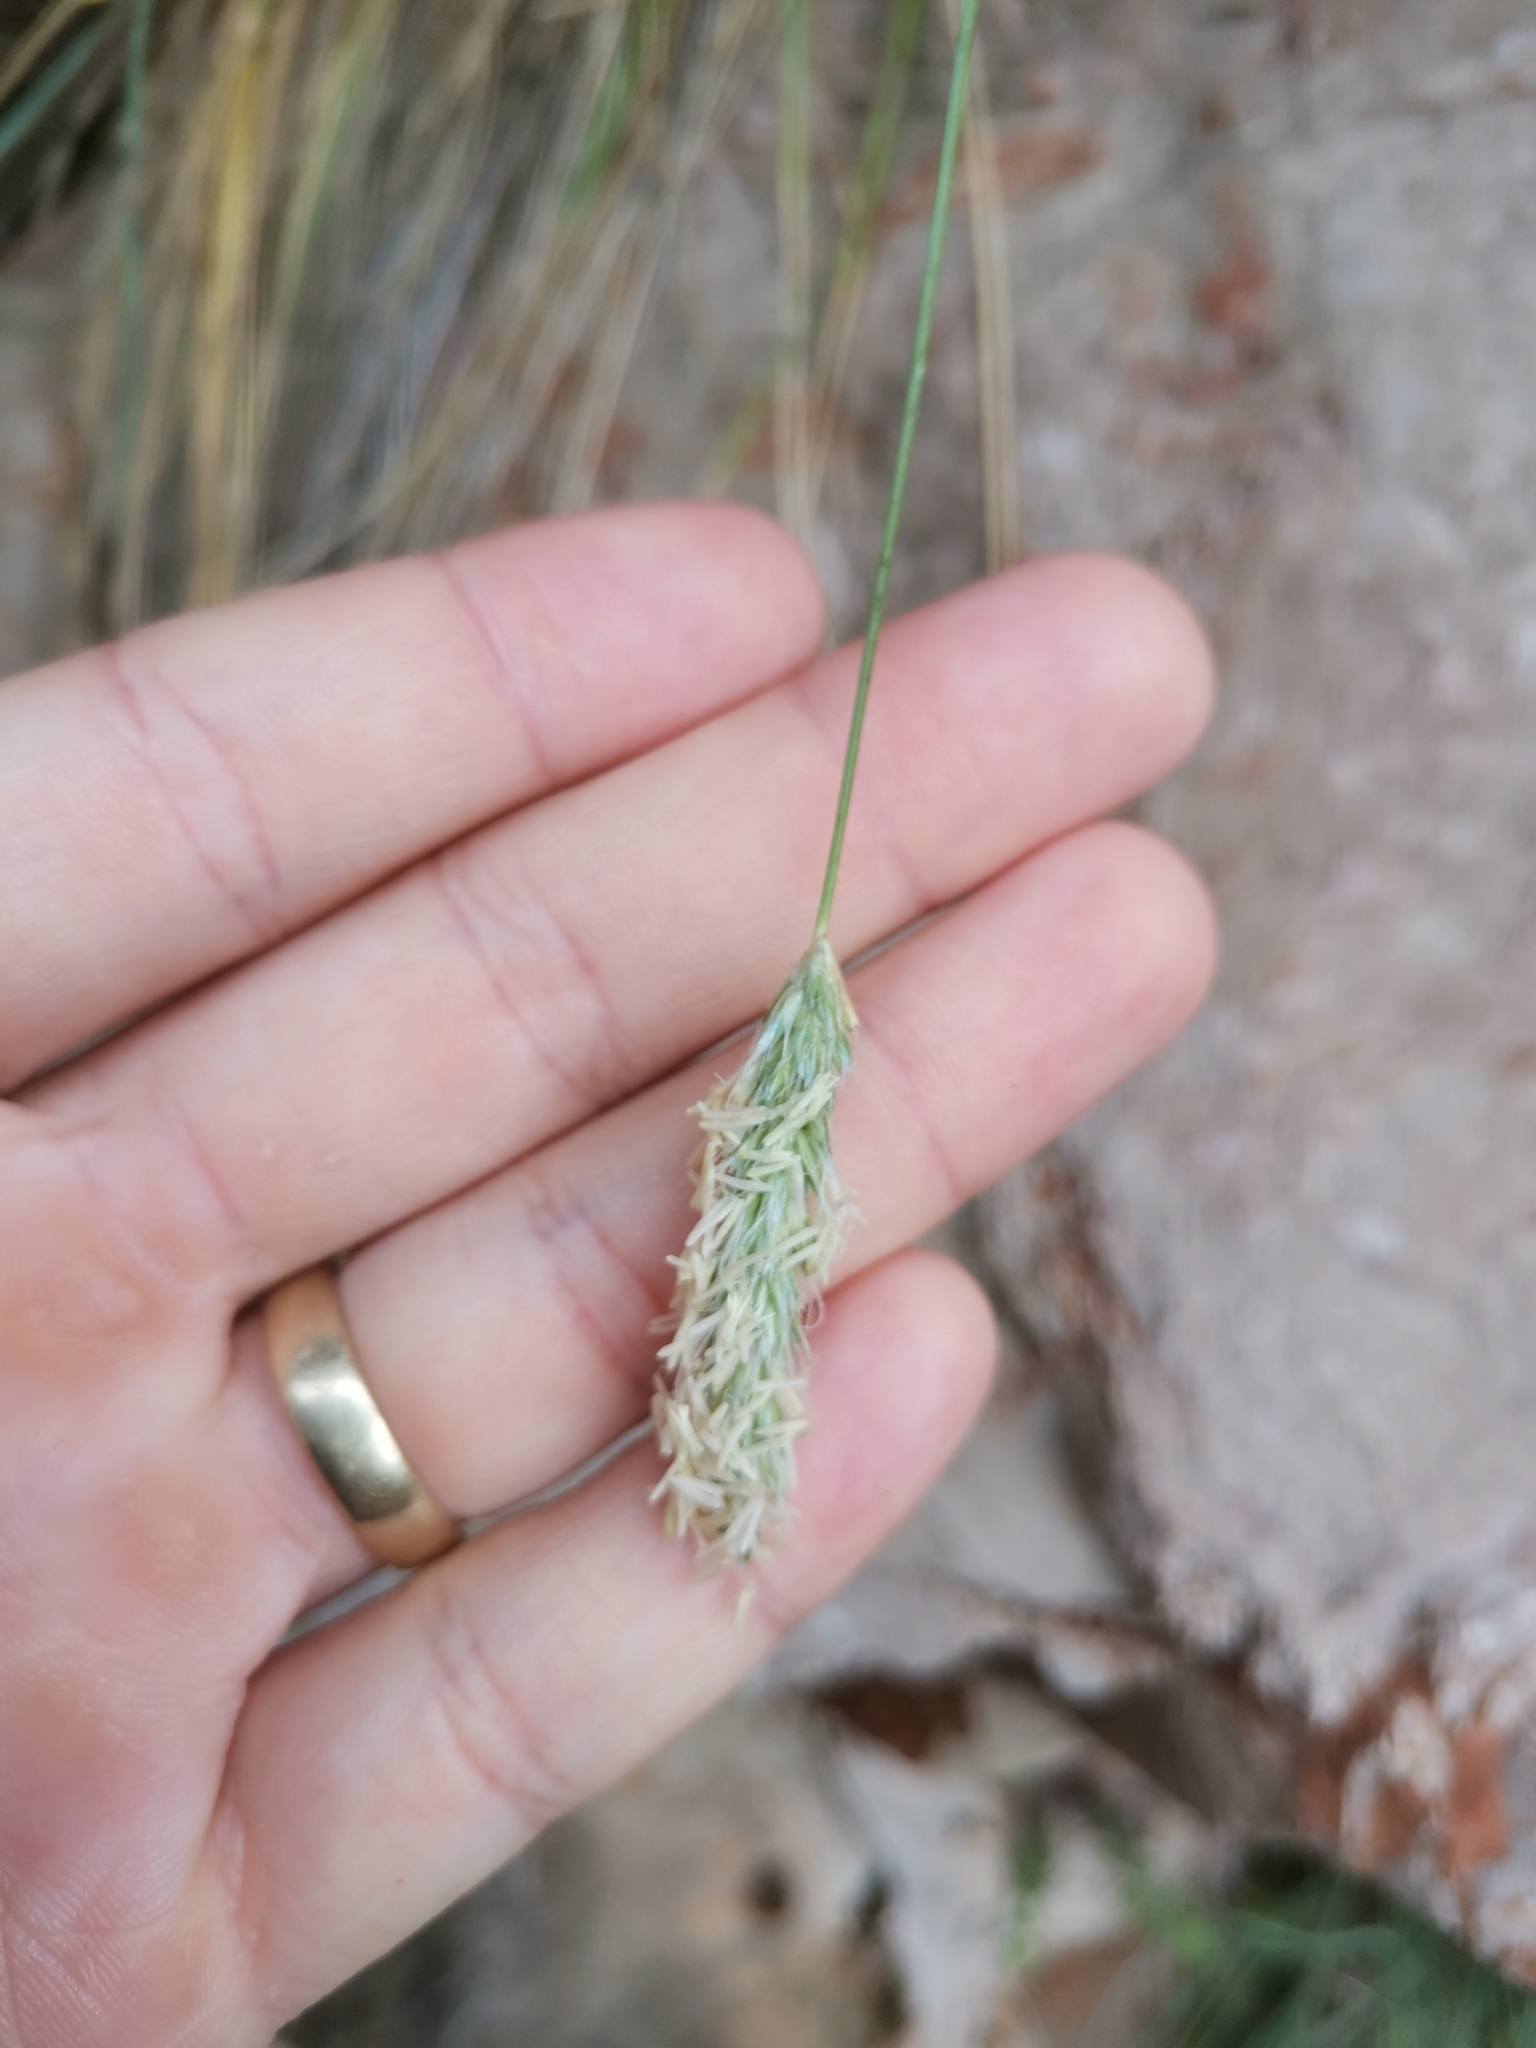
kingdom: Plantae
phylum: Tracheophyta
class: Liliopsida
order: Poales
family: Poaceae
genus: Sesleria
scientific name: Sesleria robusta
